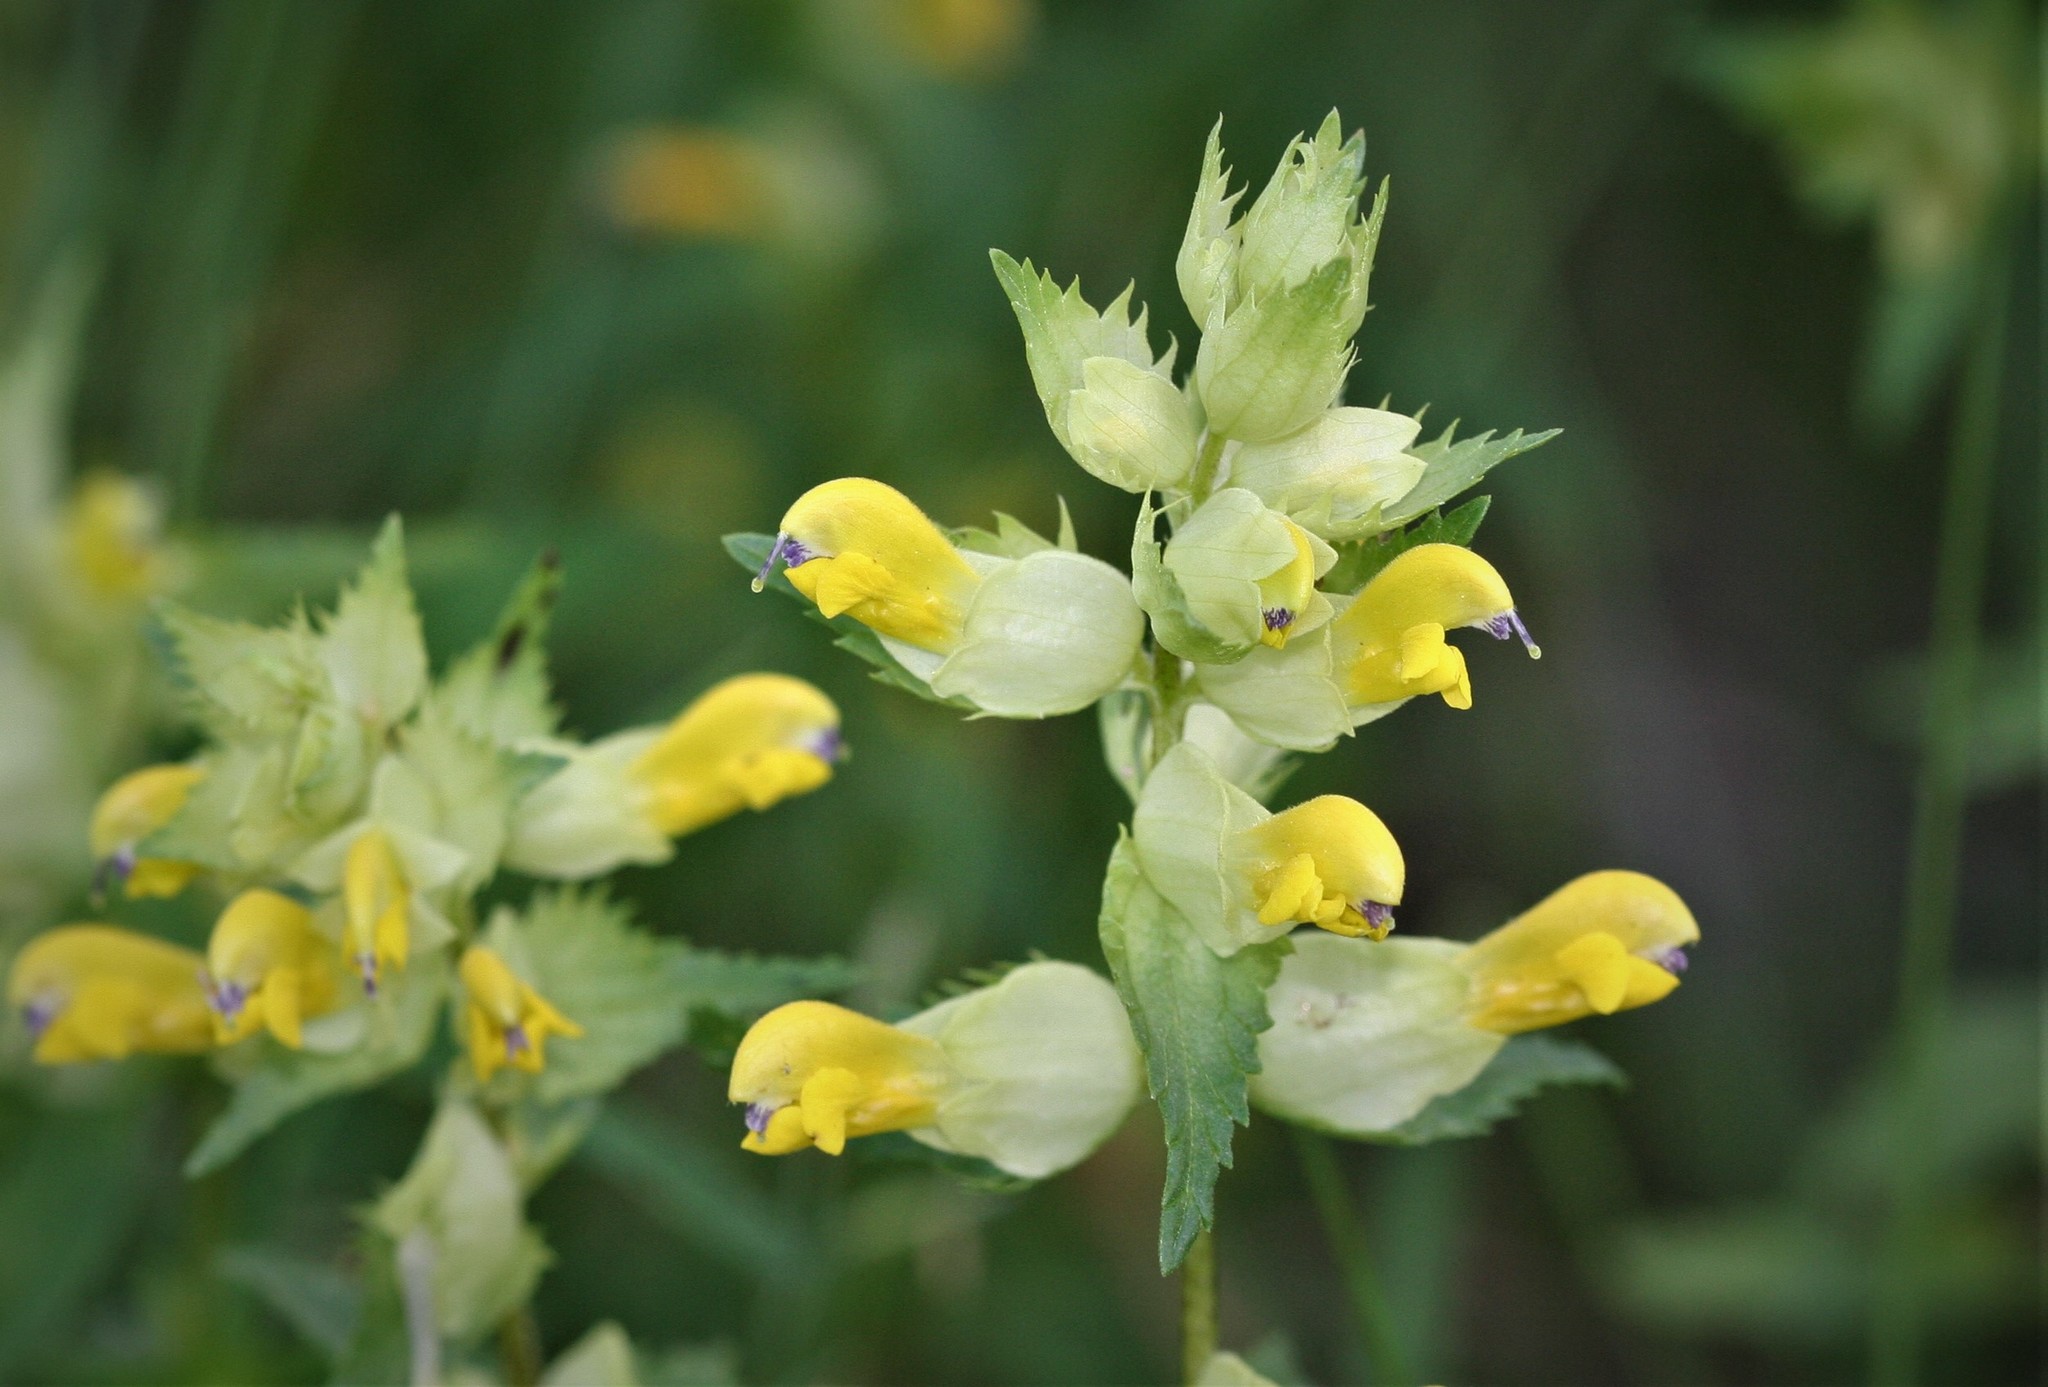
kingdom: Plantae
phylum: Tracheophyta
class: Magnoliopsida
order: Lamiales
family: Orobanchaceae
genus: Rhinanthus
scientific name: Rhinanthus serotinus
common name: Late-flowering yellow rattle
